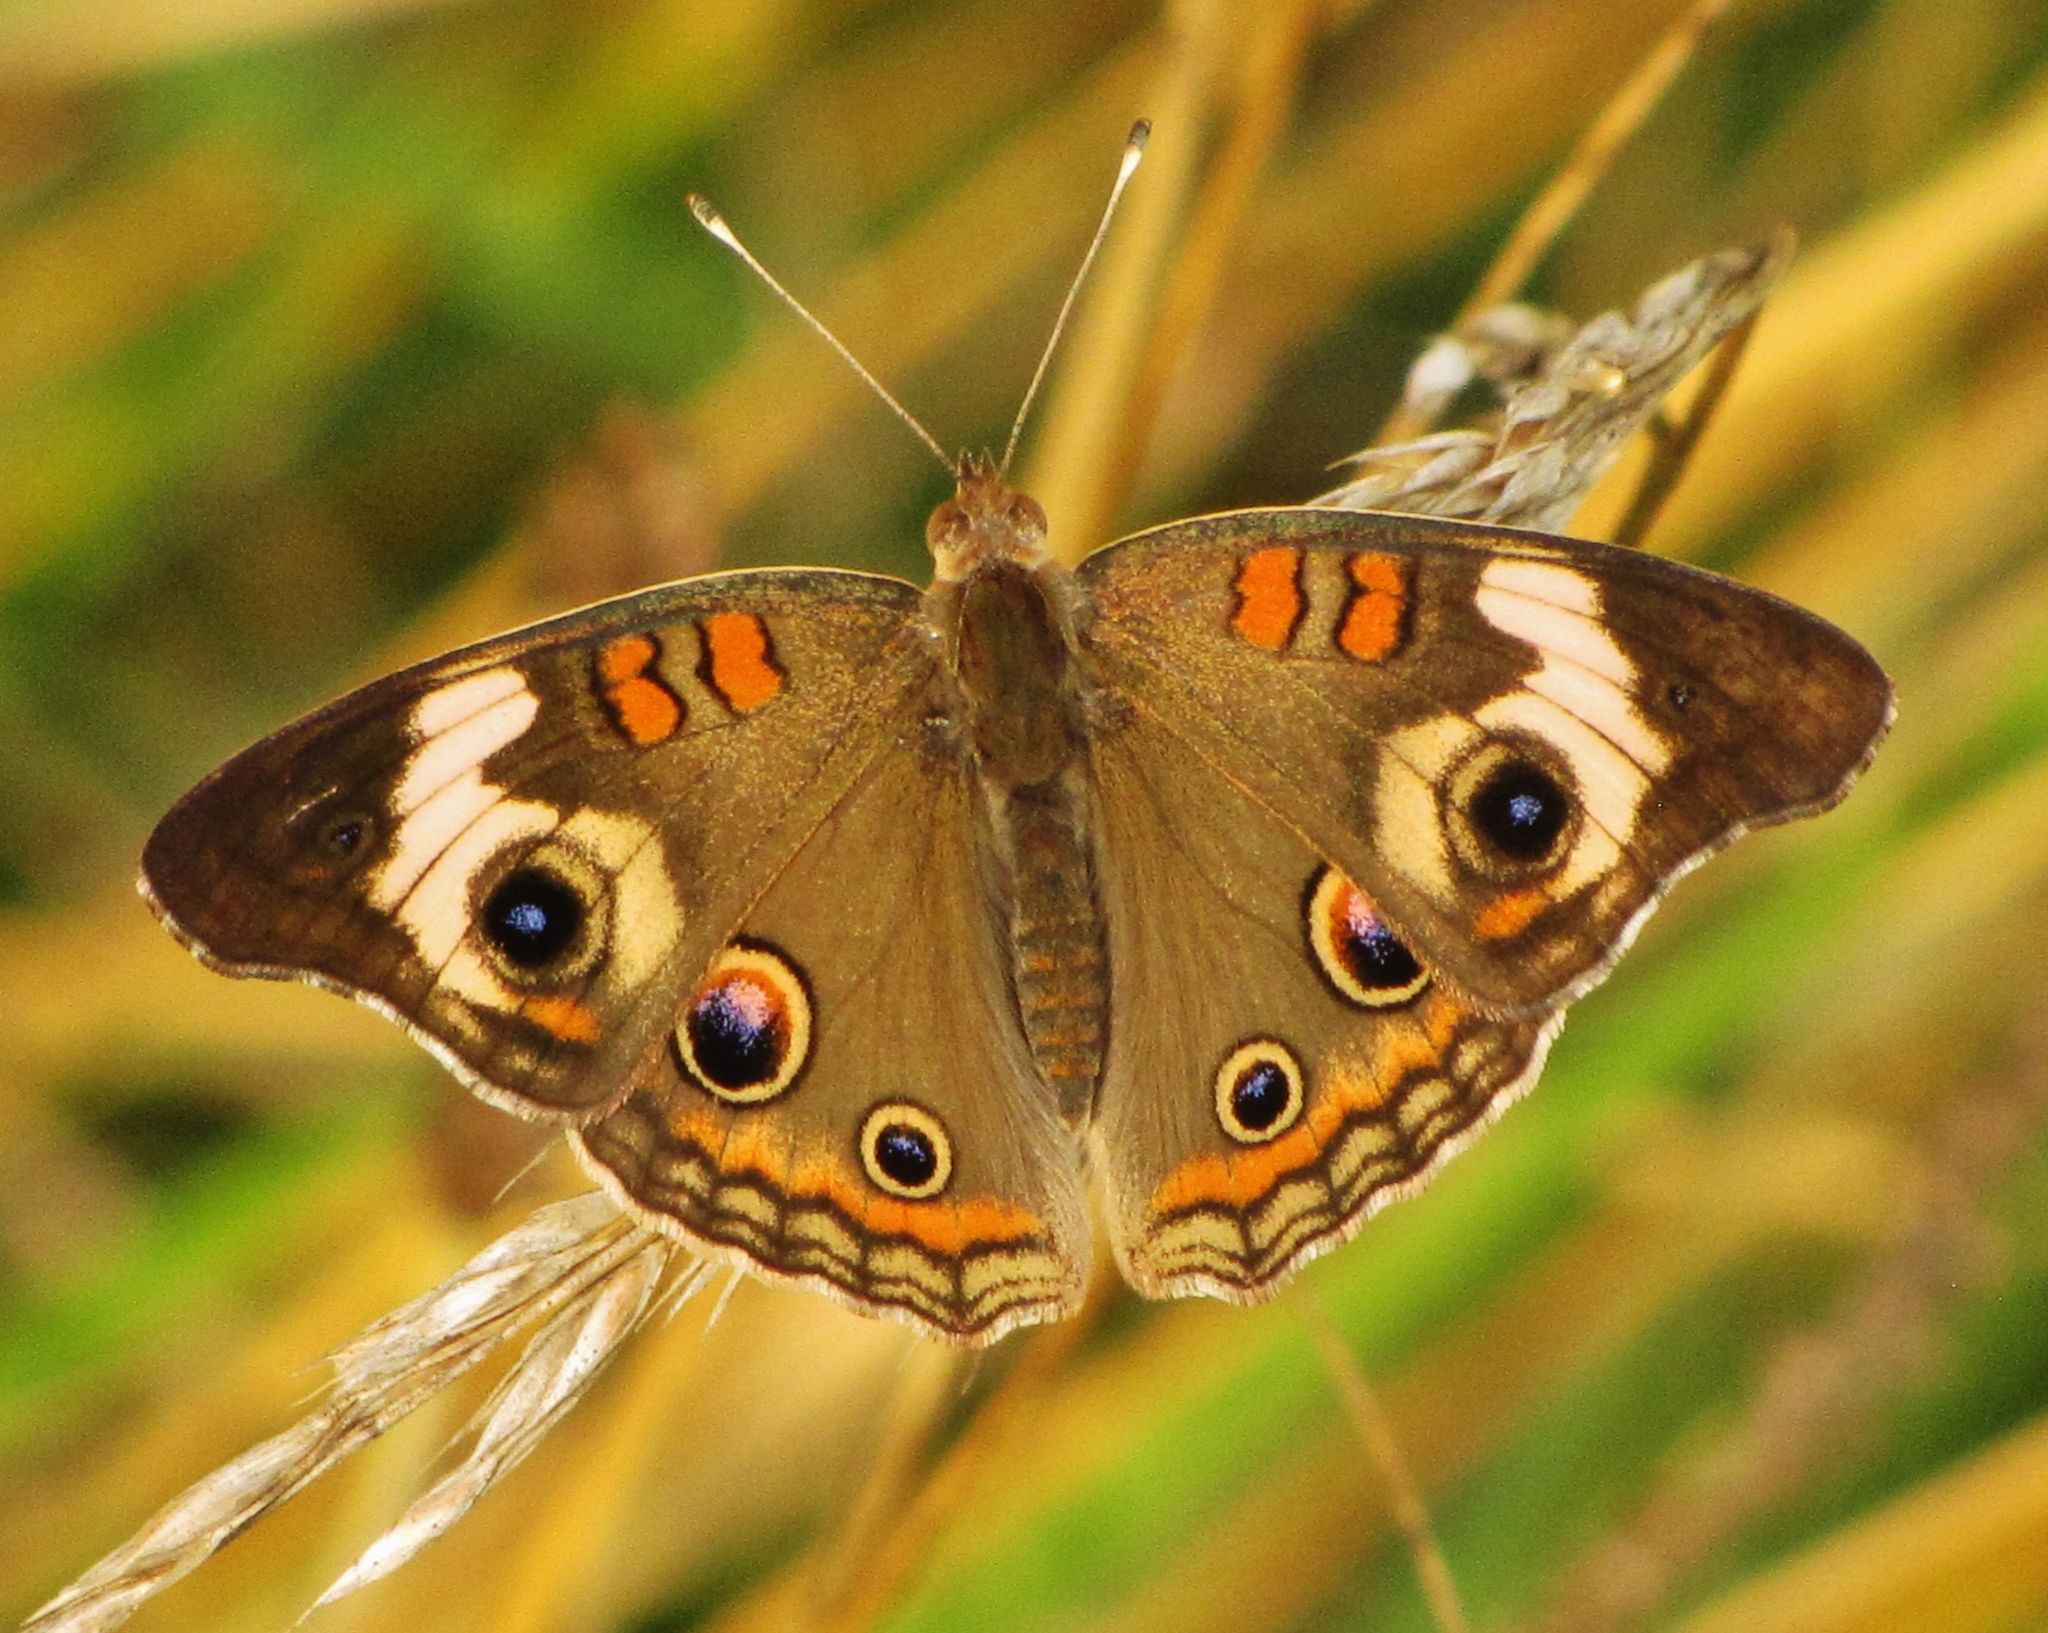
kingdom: Animalia
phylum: Arthropoda
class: Insecta
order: Lepidoptera
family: Nymphalidae
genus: Junonia
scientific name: Junonia coenia
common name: Common buckeye
